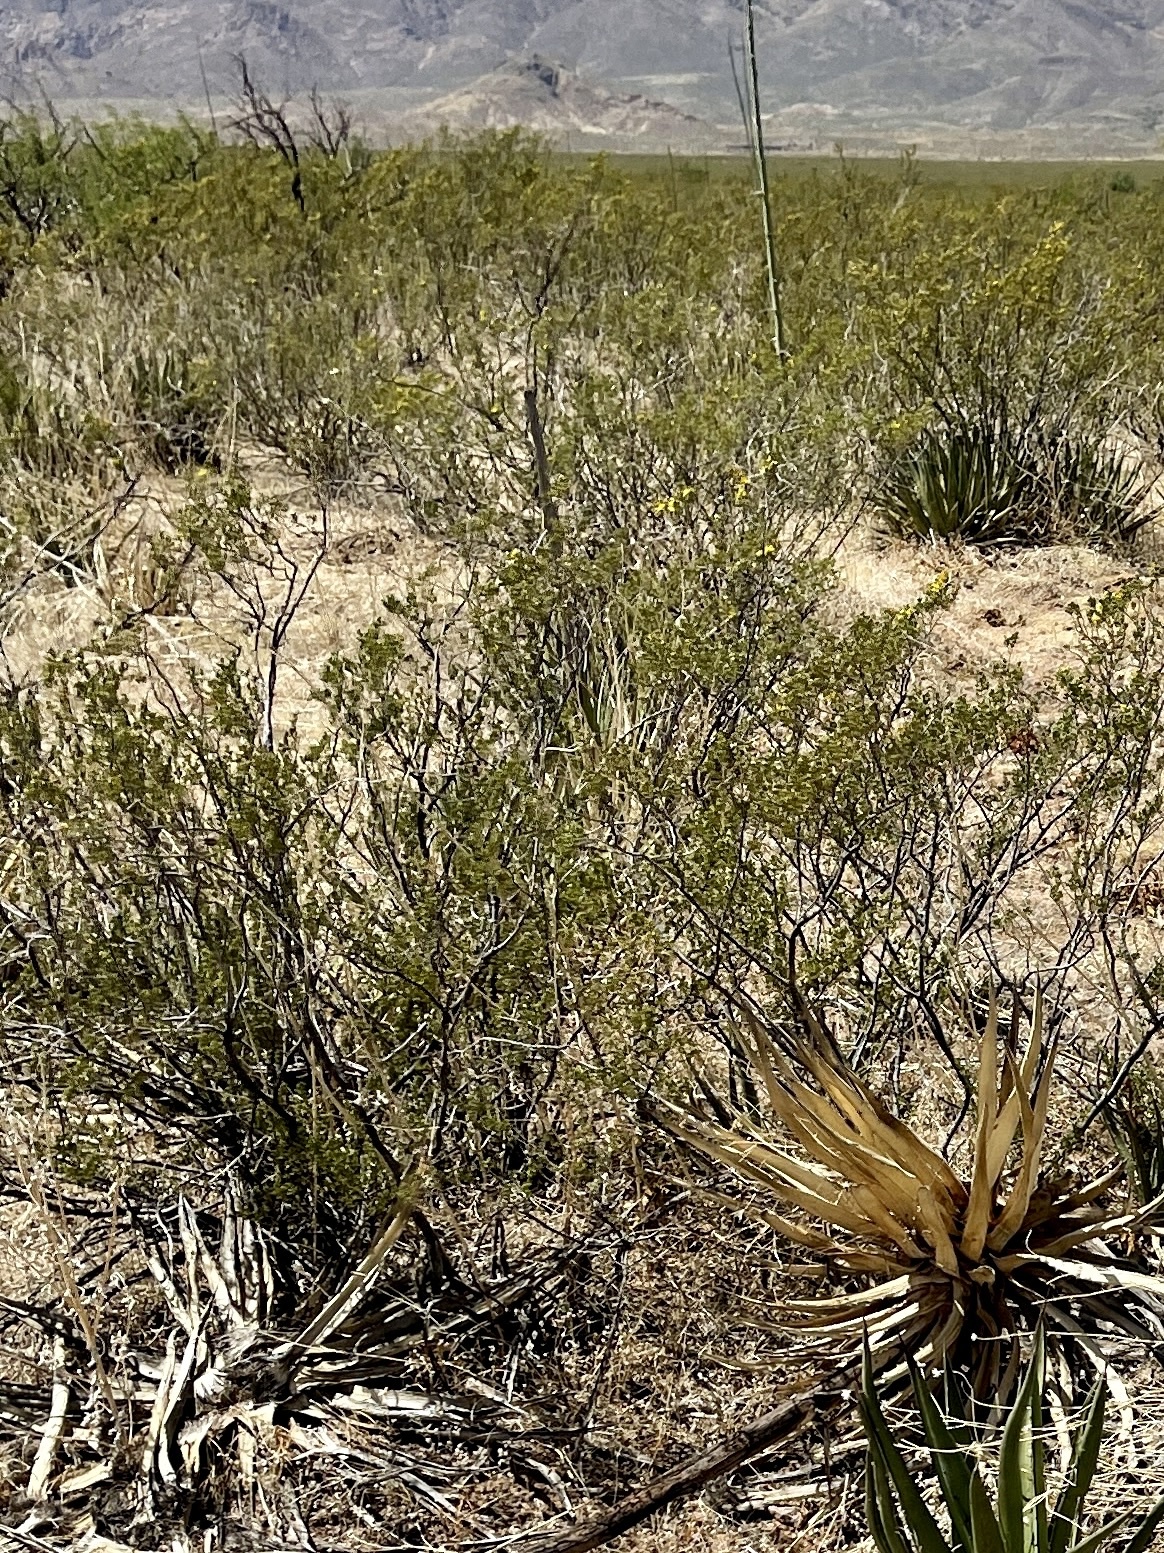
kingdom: Plantae
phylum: Tracheophyta
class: Magnoliopsida
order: Zygophyllales
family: Zygophyllaceae
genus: Larrea
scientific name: Larrea tridentata
